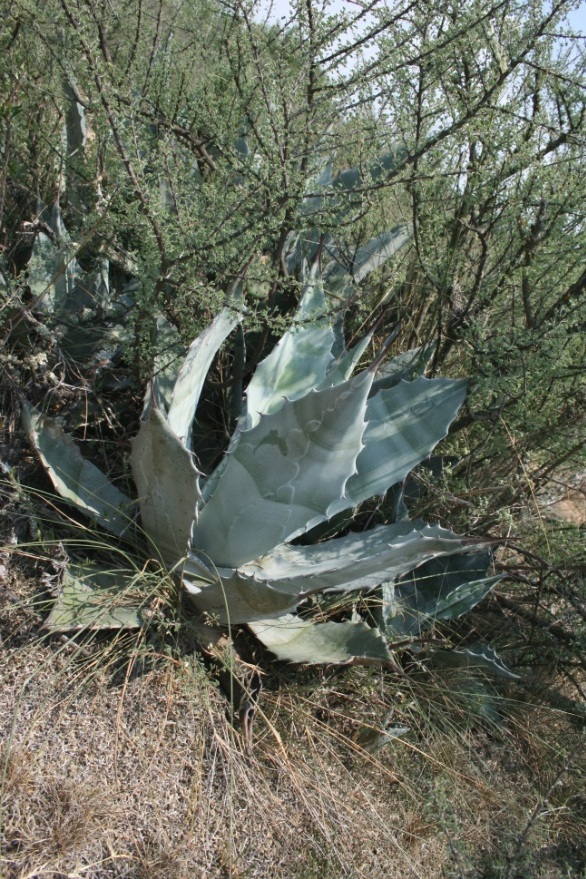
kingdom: Plantae
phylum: Tracheophyta
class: Liliopsida
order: Asparagales
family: Asparagaceae
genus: Agave
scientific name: Agave asperrima
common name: Rough agave
